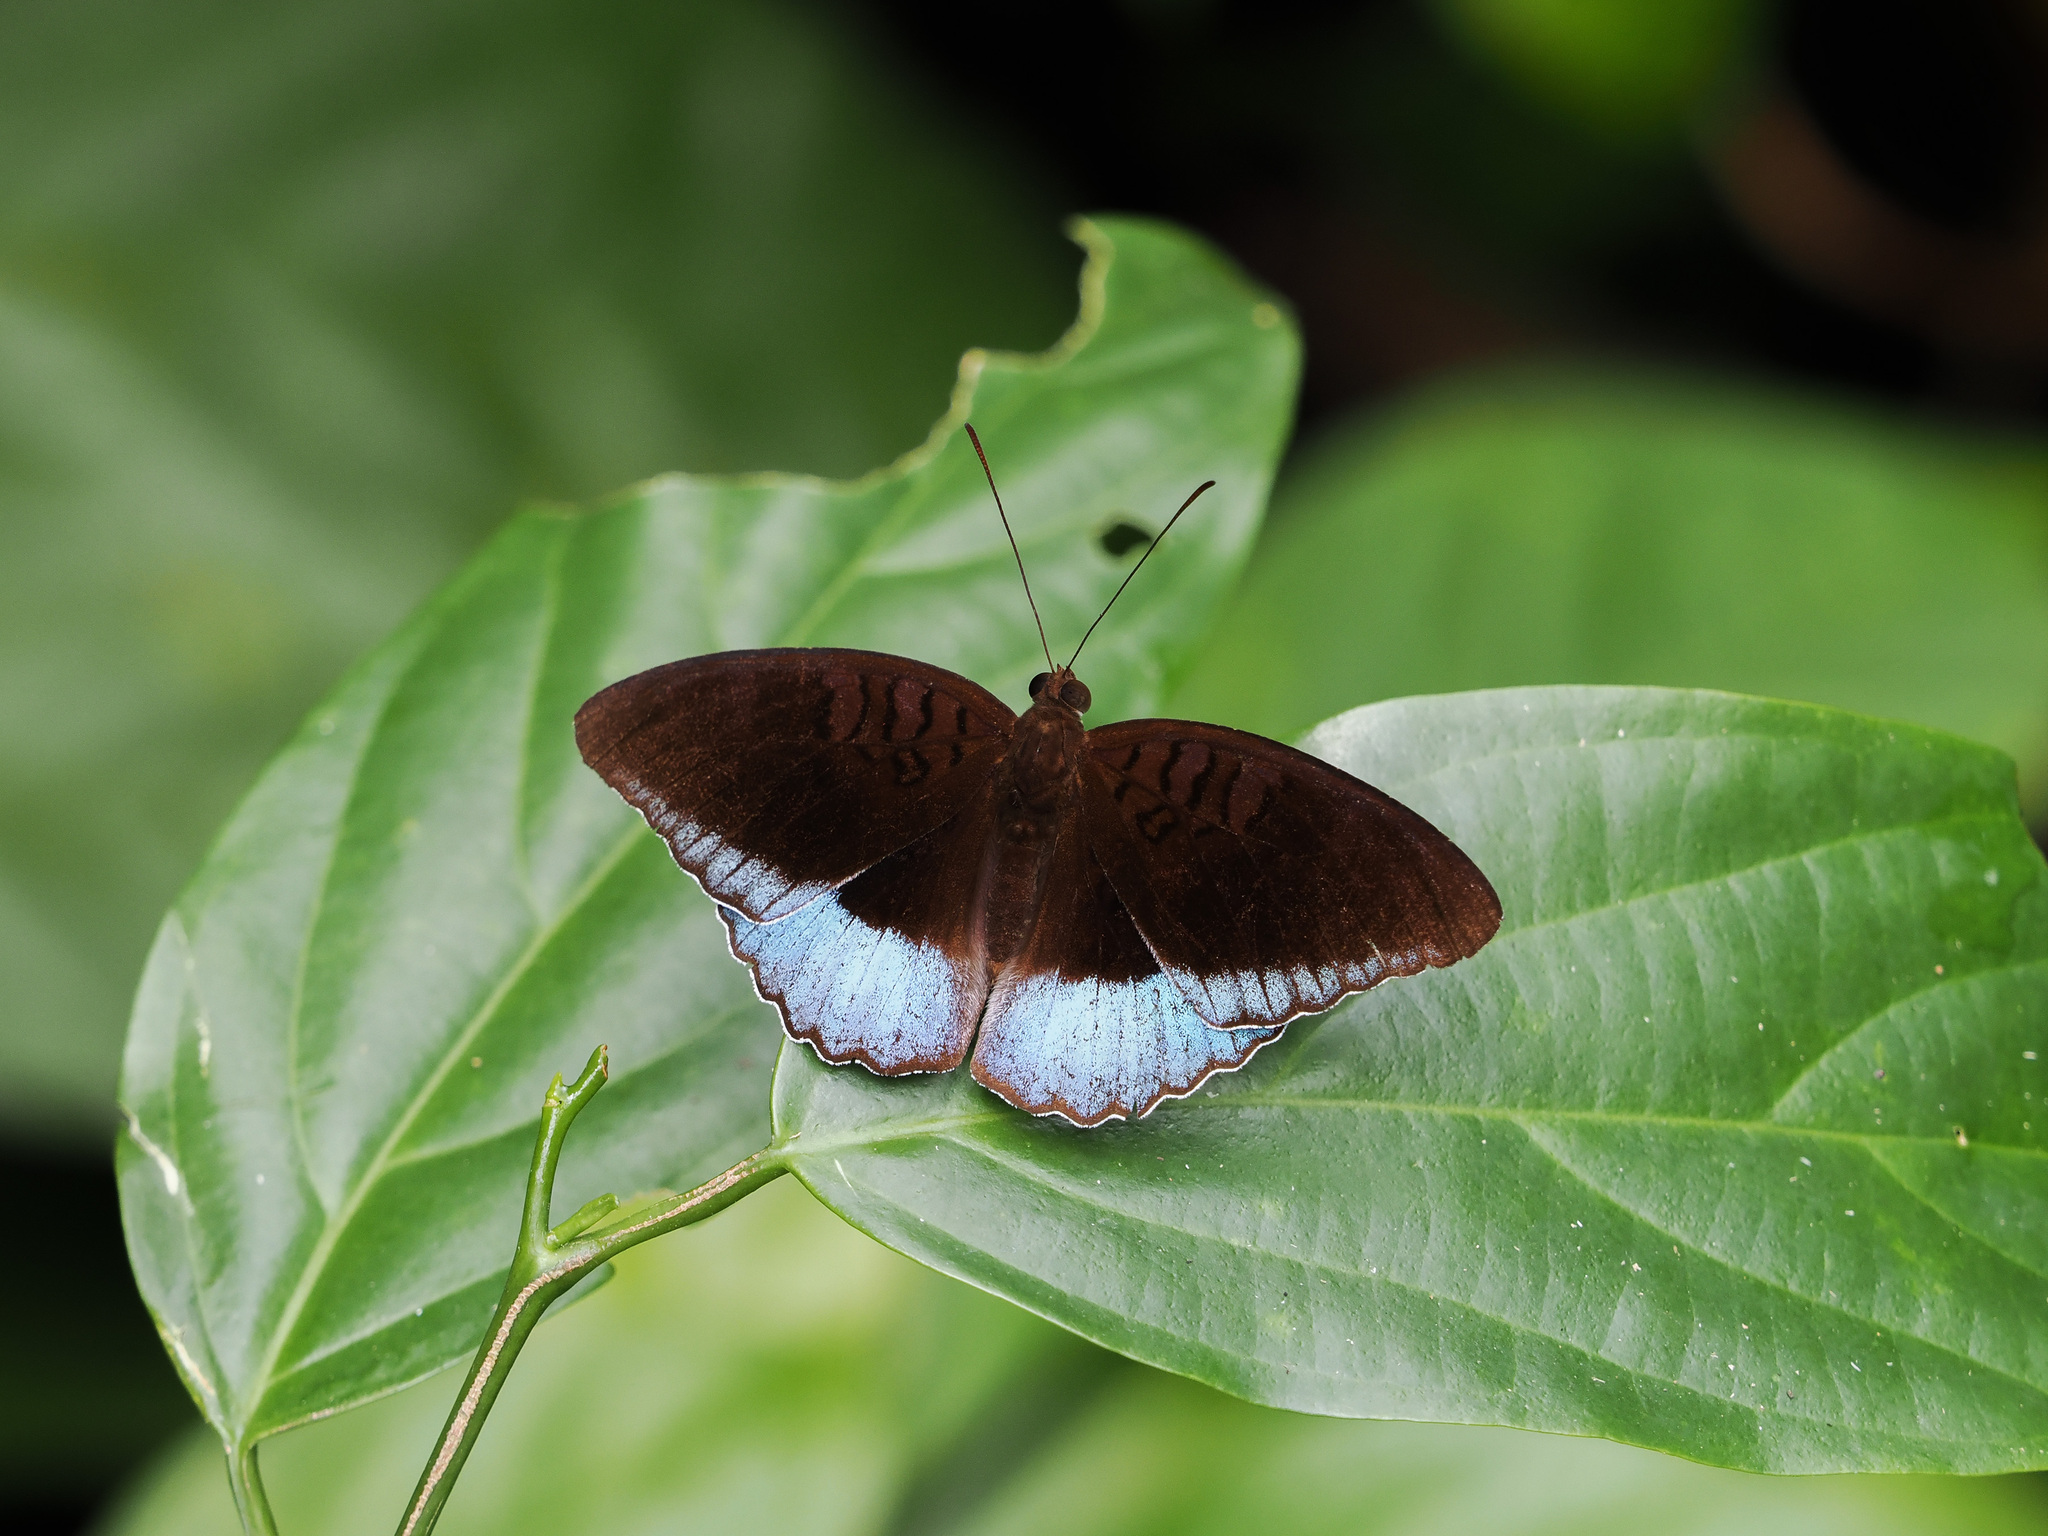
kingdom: Animalia
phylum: Arthropoda
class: Insecta
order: Lepidoptera
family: Nymphalidae
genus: Tanaecia
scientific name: Tanaecia iapis
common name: Horsfield's baron
